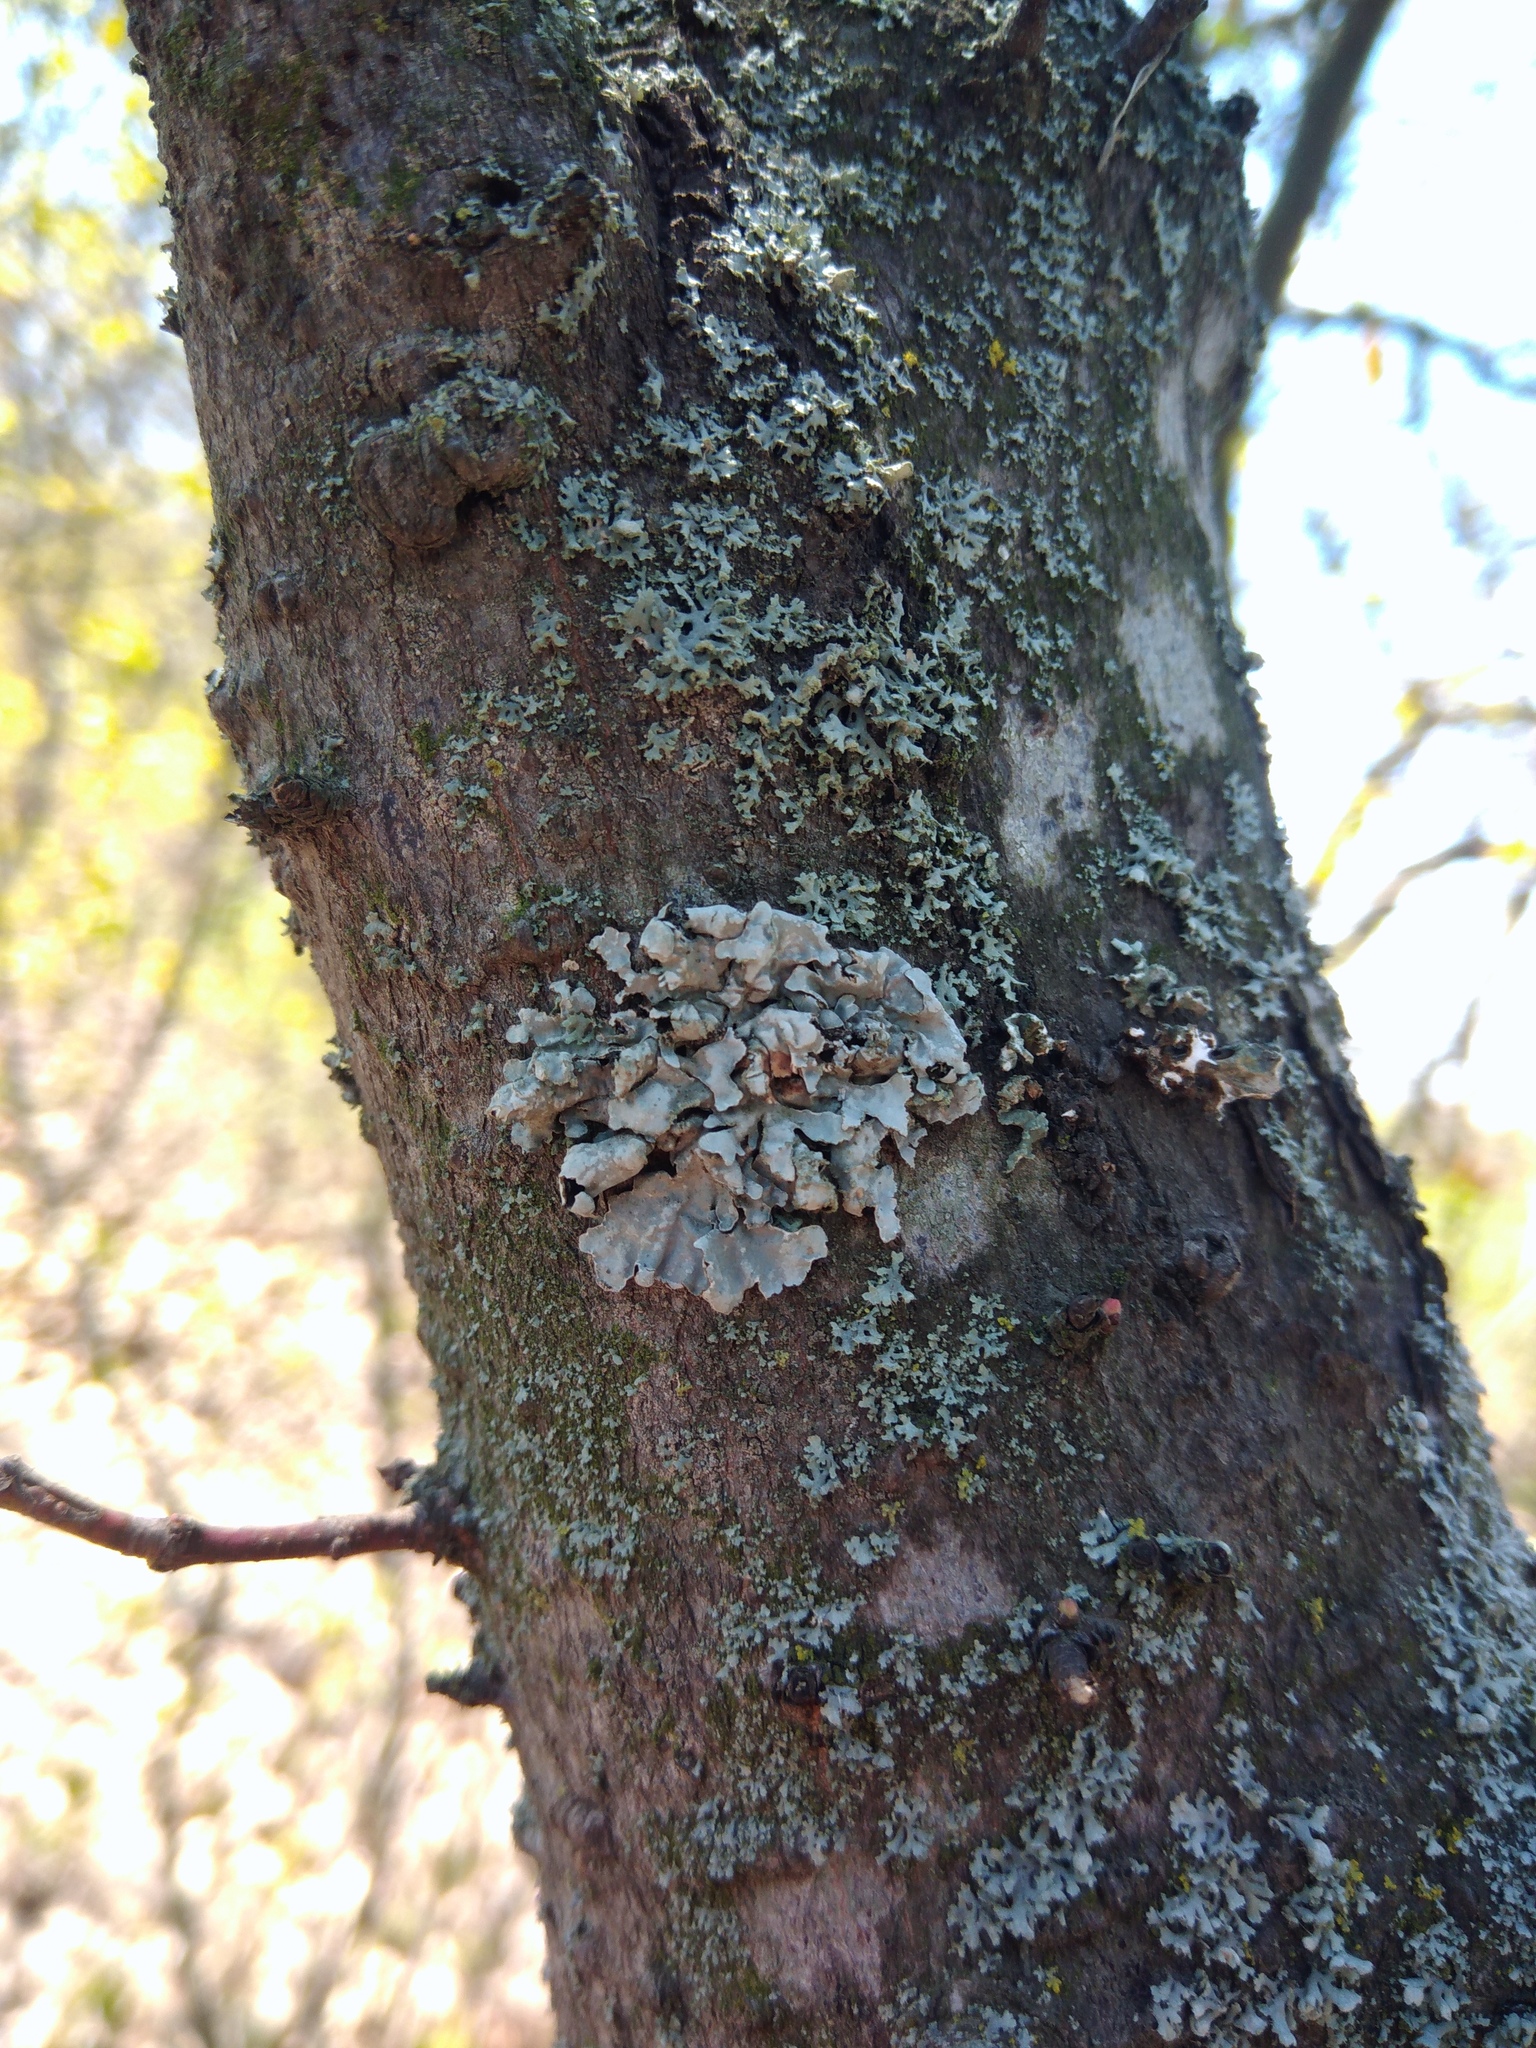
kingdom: Fungi
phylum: Ascomycota
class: Lecanoromycetes
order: Lecanorales
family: Parmeliaceae
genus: Parmelia
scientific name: Parmelia sulcata
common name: Netted shield lichen
